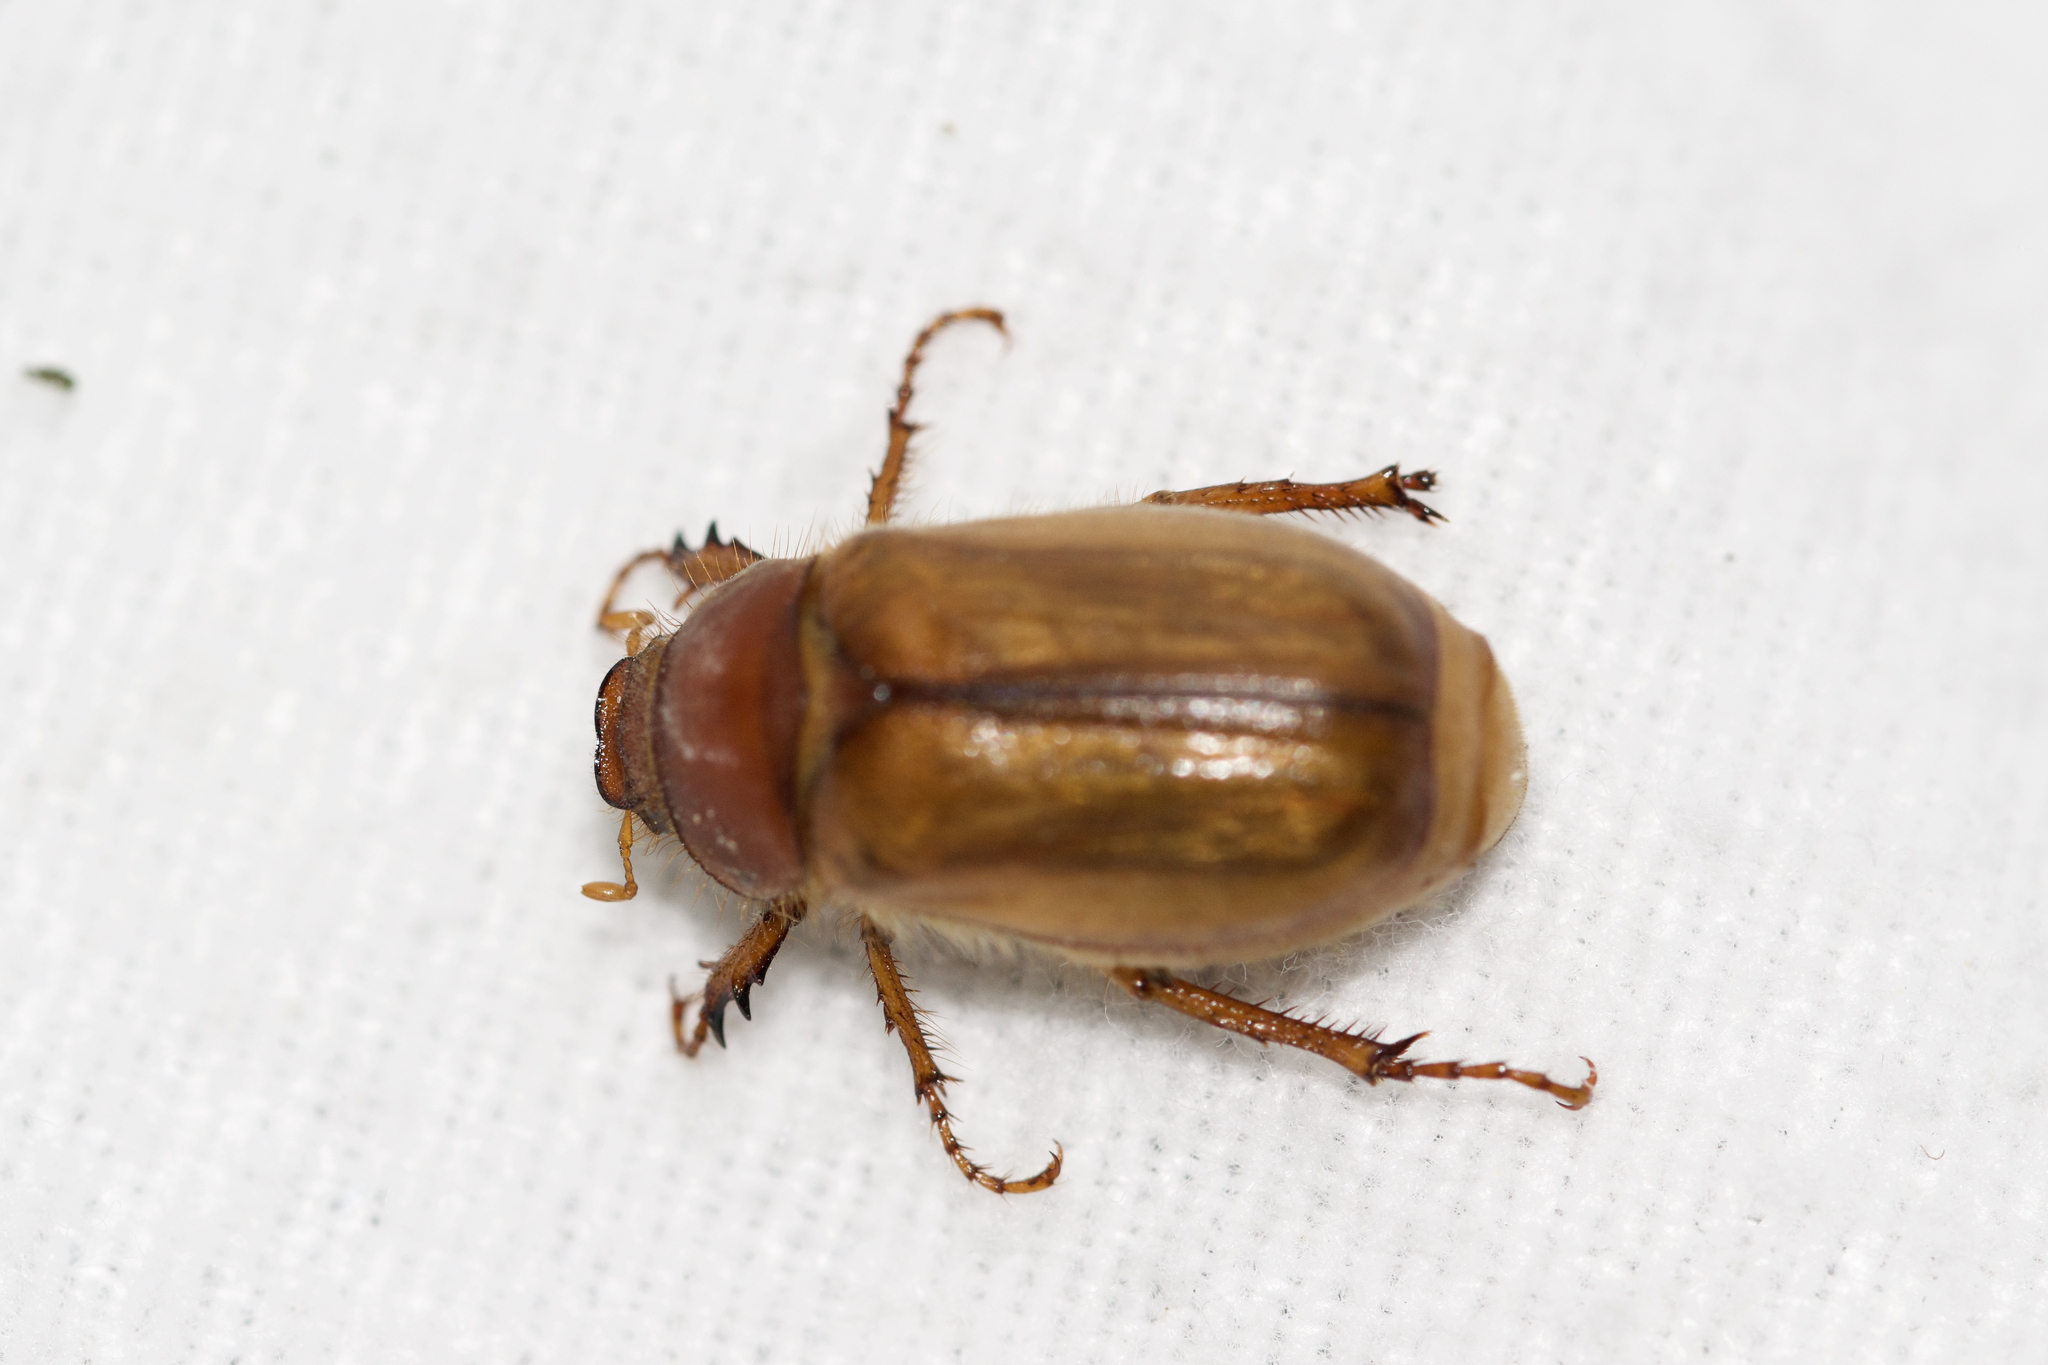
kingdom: Animalia
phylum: Arthropoda
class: Insecta
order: Coleoptera
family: Scarabaeidae
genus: Amphimallon
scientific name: Amphimallon majale
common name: European chafer
